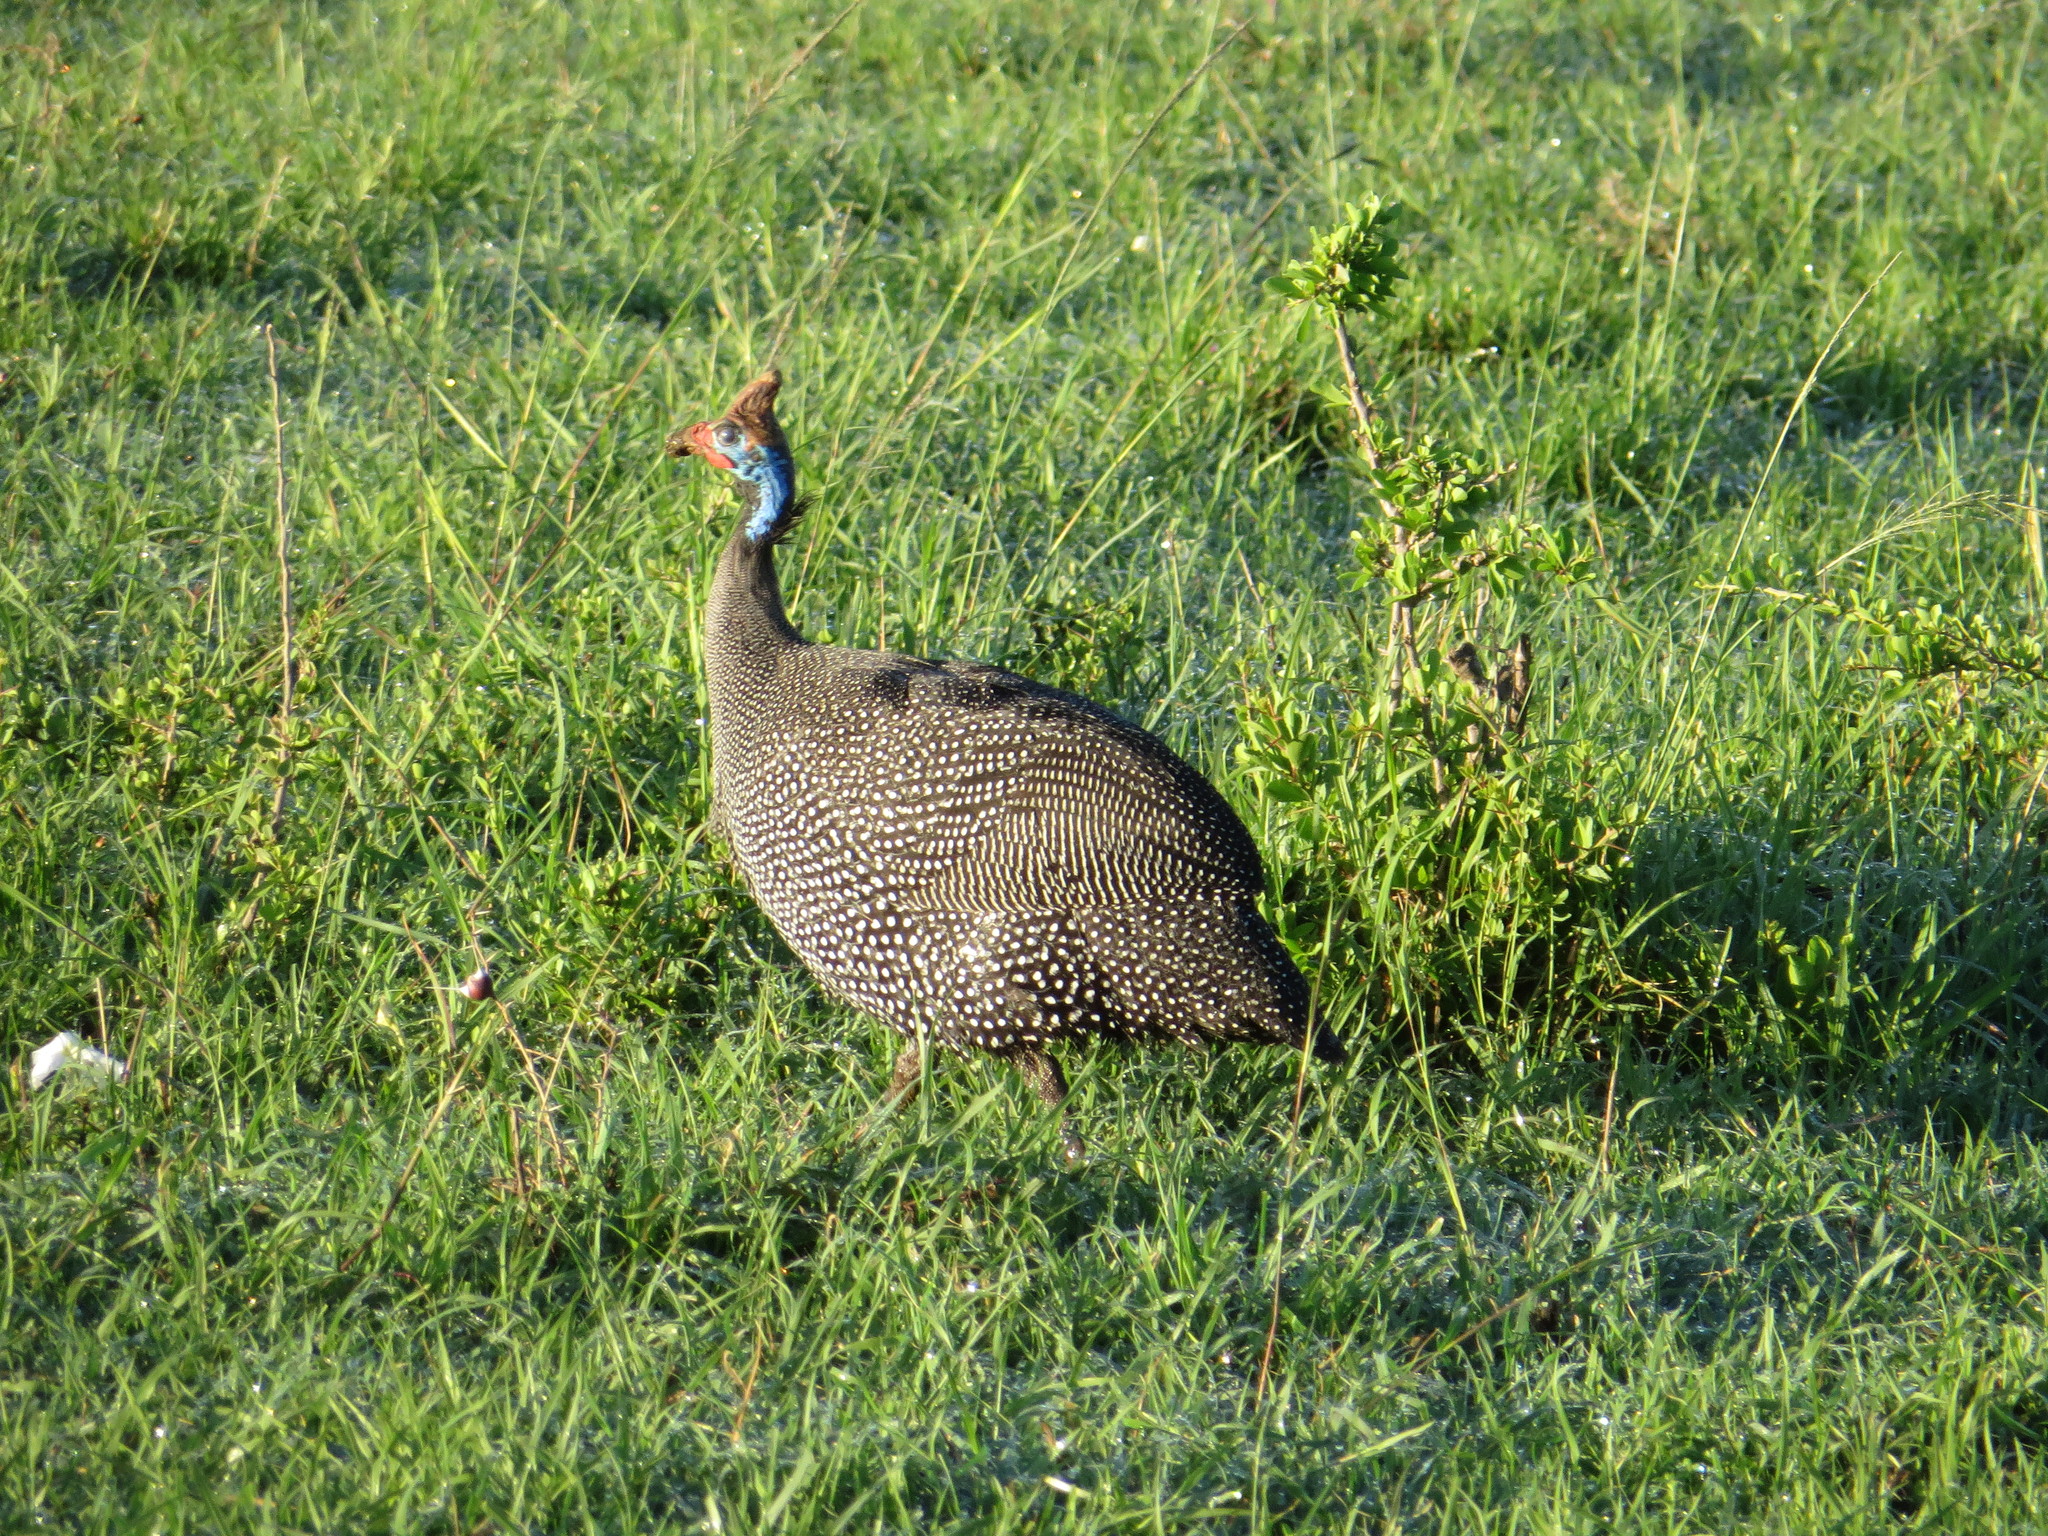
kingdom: Animalia
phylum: Chordata
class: Aves
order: Galliformes
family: Numididae
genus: Numida
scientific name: Numida meleagris
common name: Helmeted guineafowl
